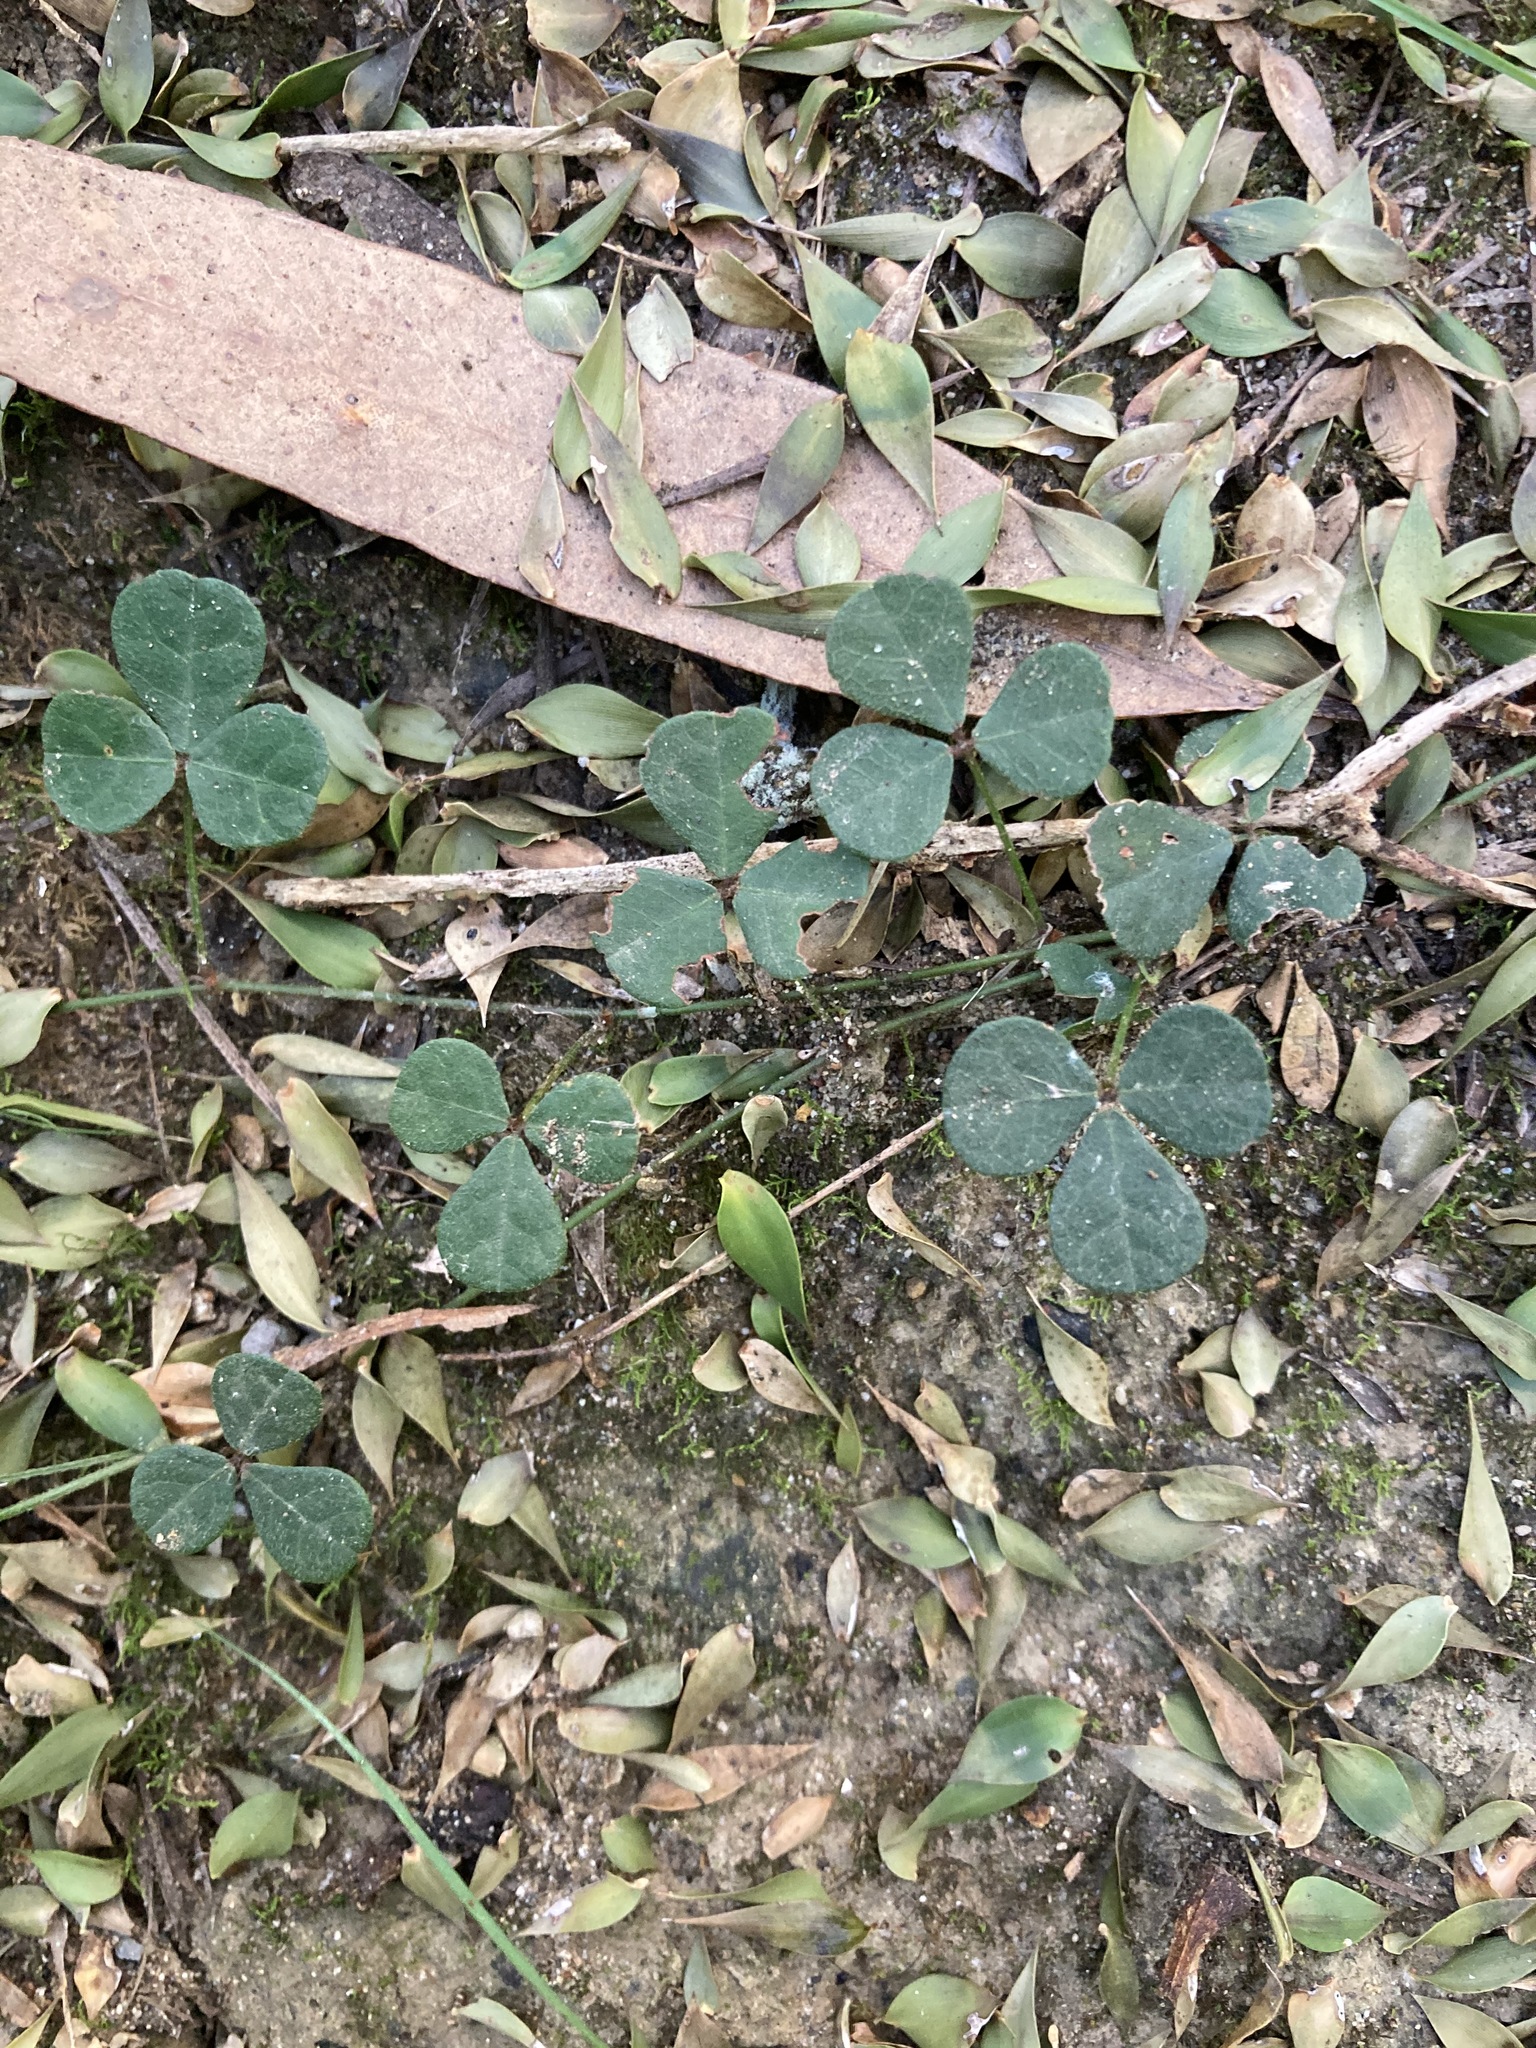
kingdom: Plantae
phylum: Tracheophyta
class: Magnoliopsida
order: Fabales
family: Fabaceae
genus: Pullenia
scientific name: Pullenia gunnii
